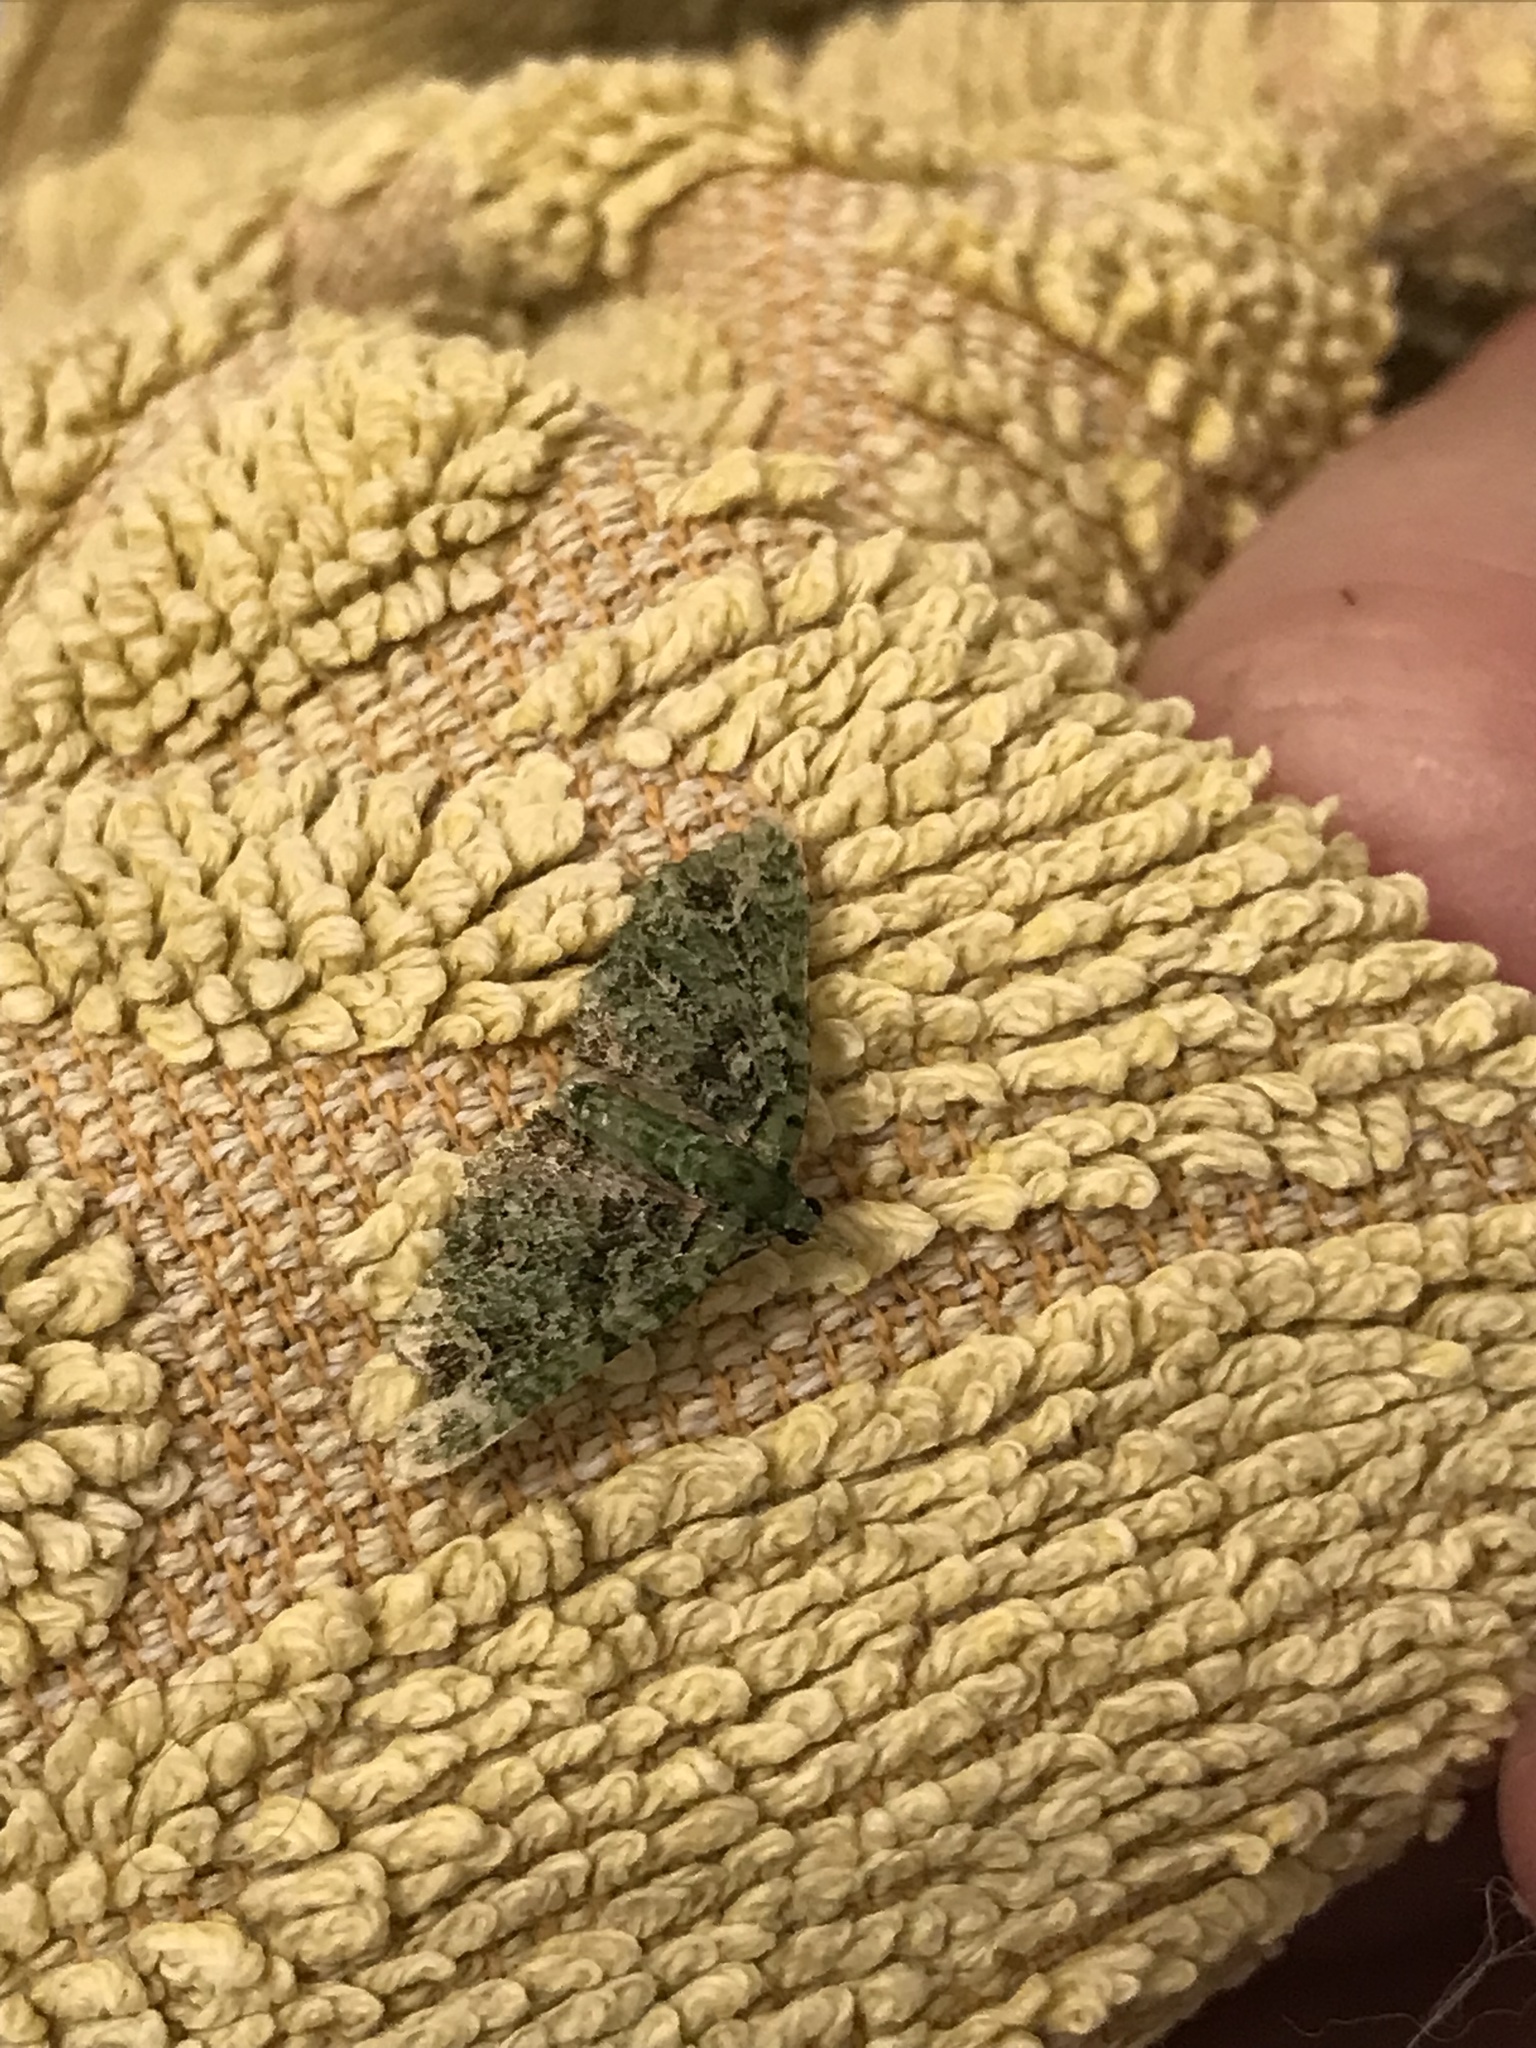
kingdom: Animalia
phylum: Arthropoda
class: Insecta
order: Lepidoptera
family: Geometridae
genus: Pasiphila
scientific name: Pasiphila muscosata
